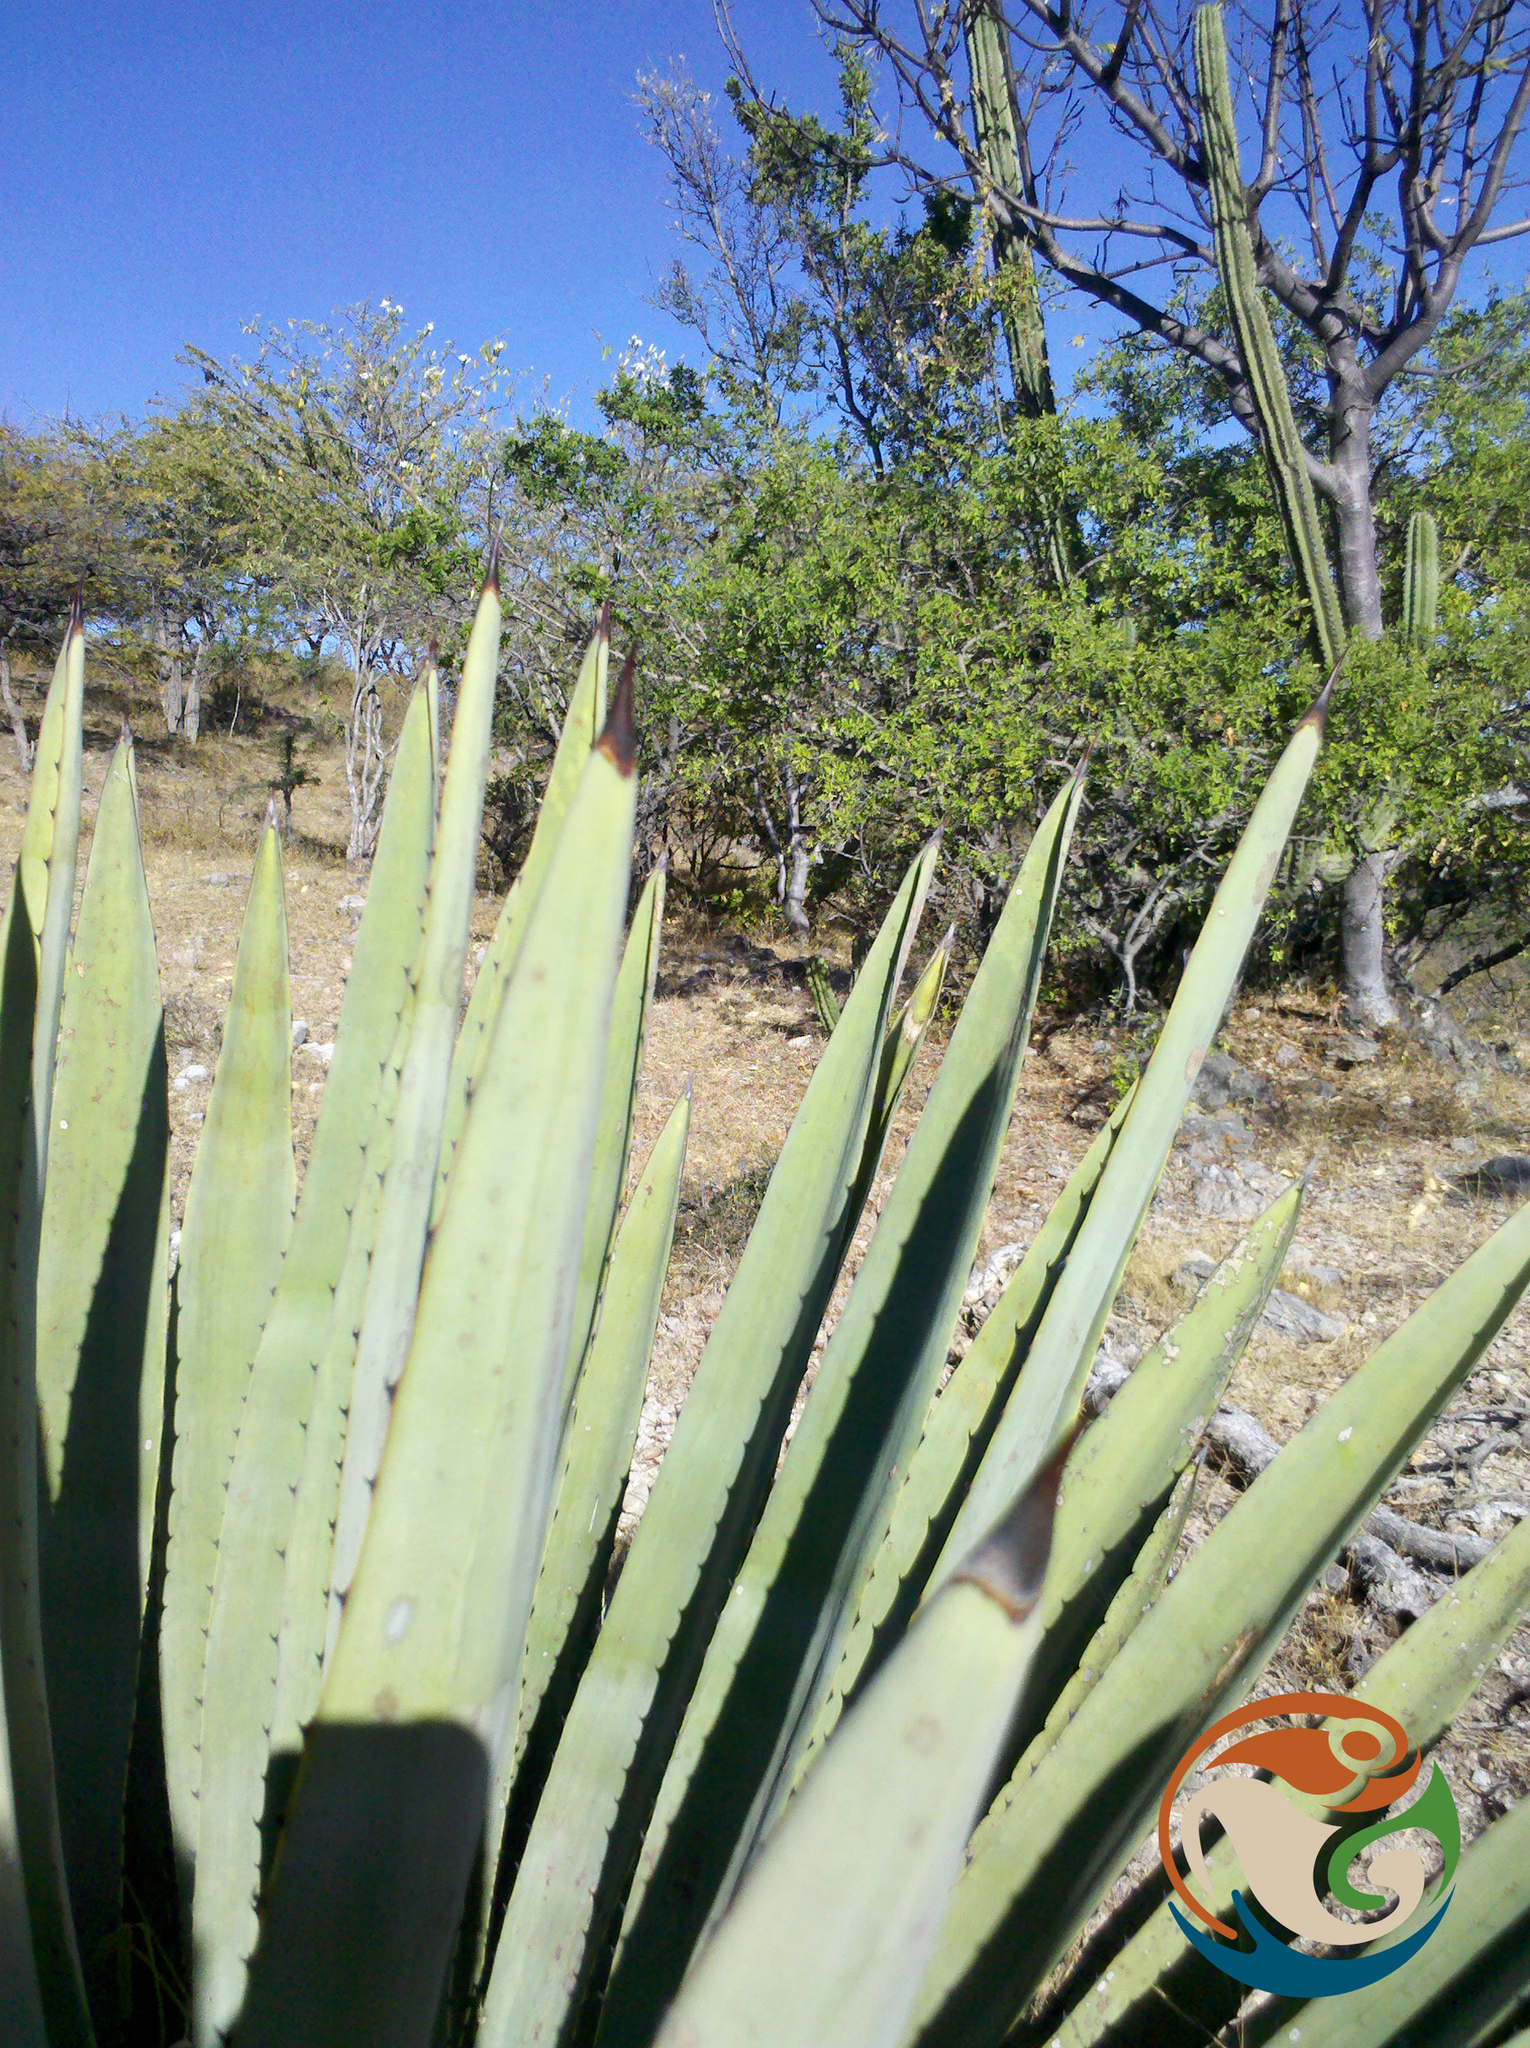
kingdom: Plantae
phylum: Tracheophyta
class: Liliopsida
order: Asparagales
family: Asparagaceae
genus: Agave
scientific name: Agave angustifolia
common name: Mescal agave
